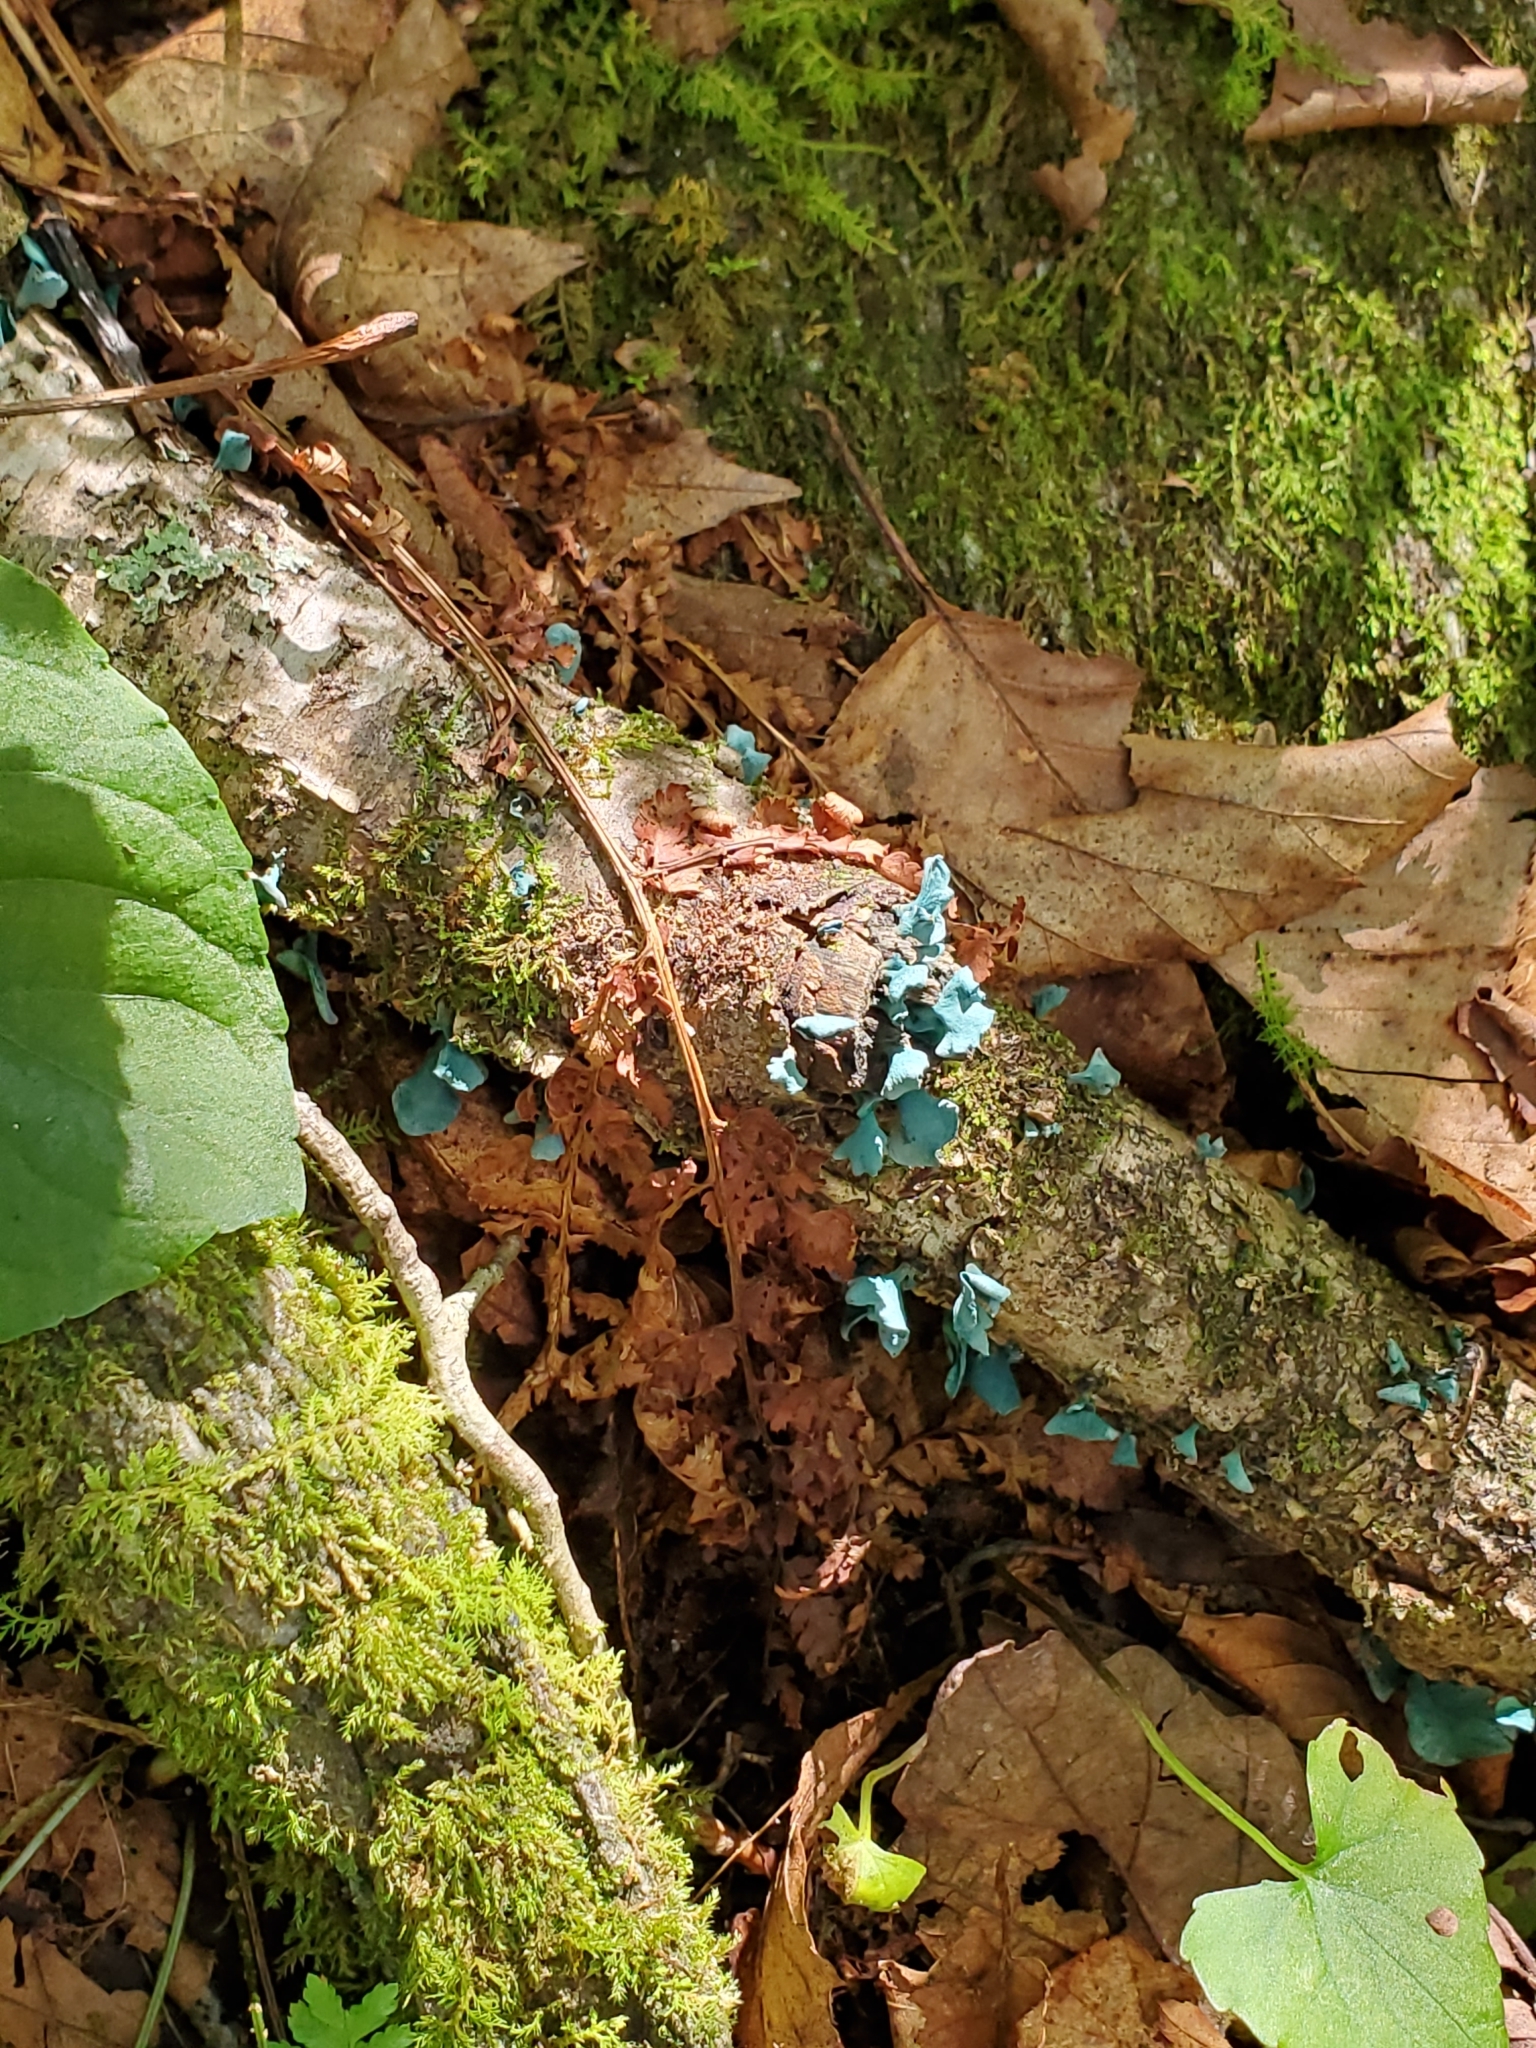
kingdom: Fungi
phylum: Ascomycota
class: Leotiomycetes
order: Helotiales
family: Chlorociboriaceae
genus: Chlorociboria
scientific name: Chlorociboria aeruginascens
